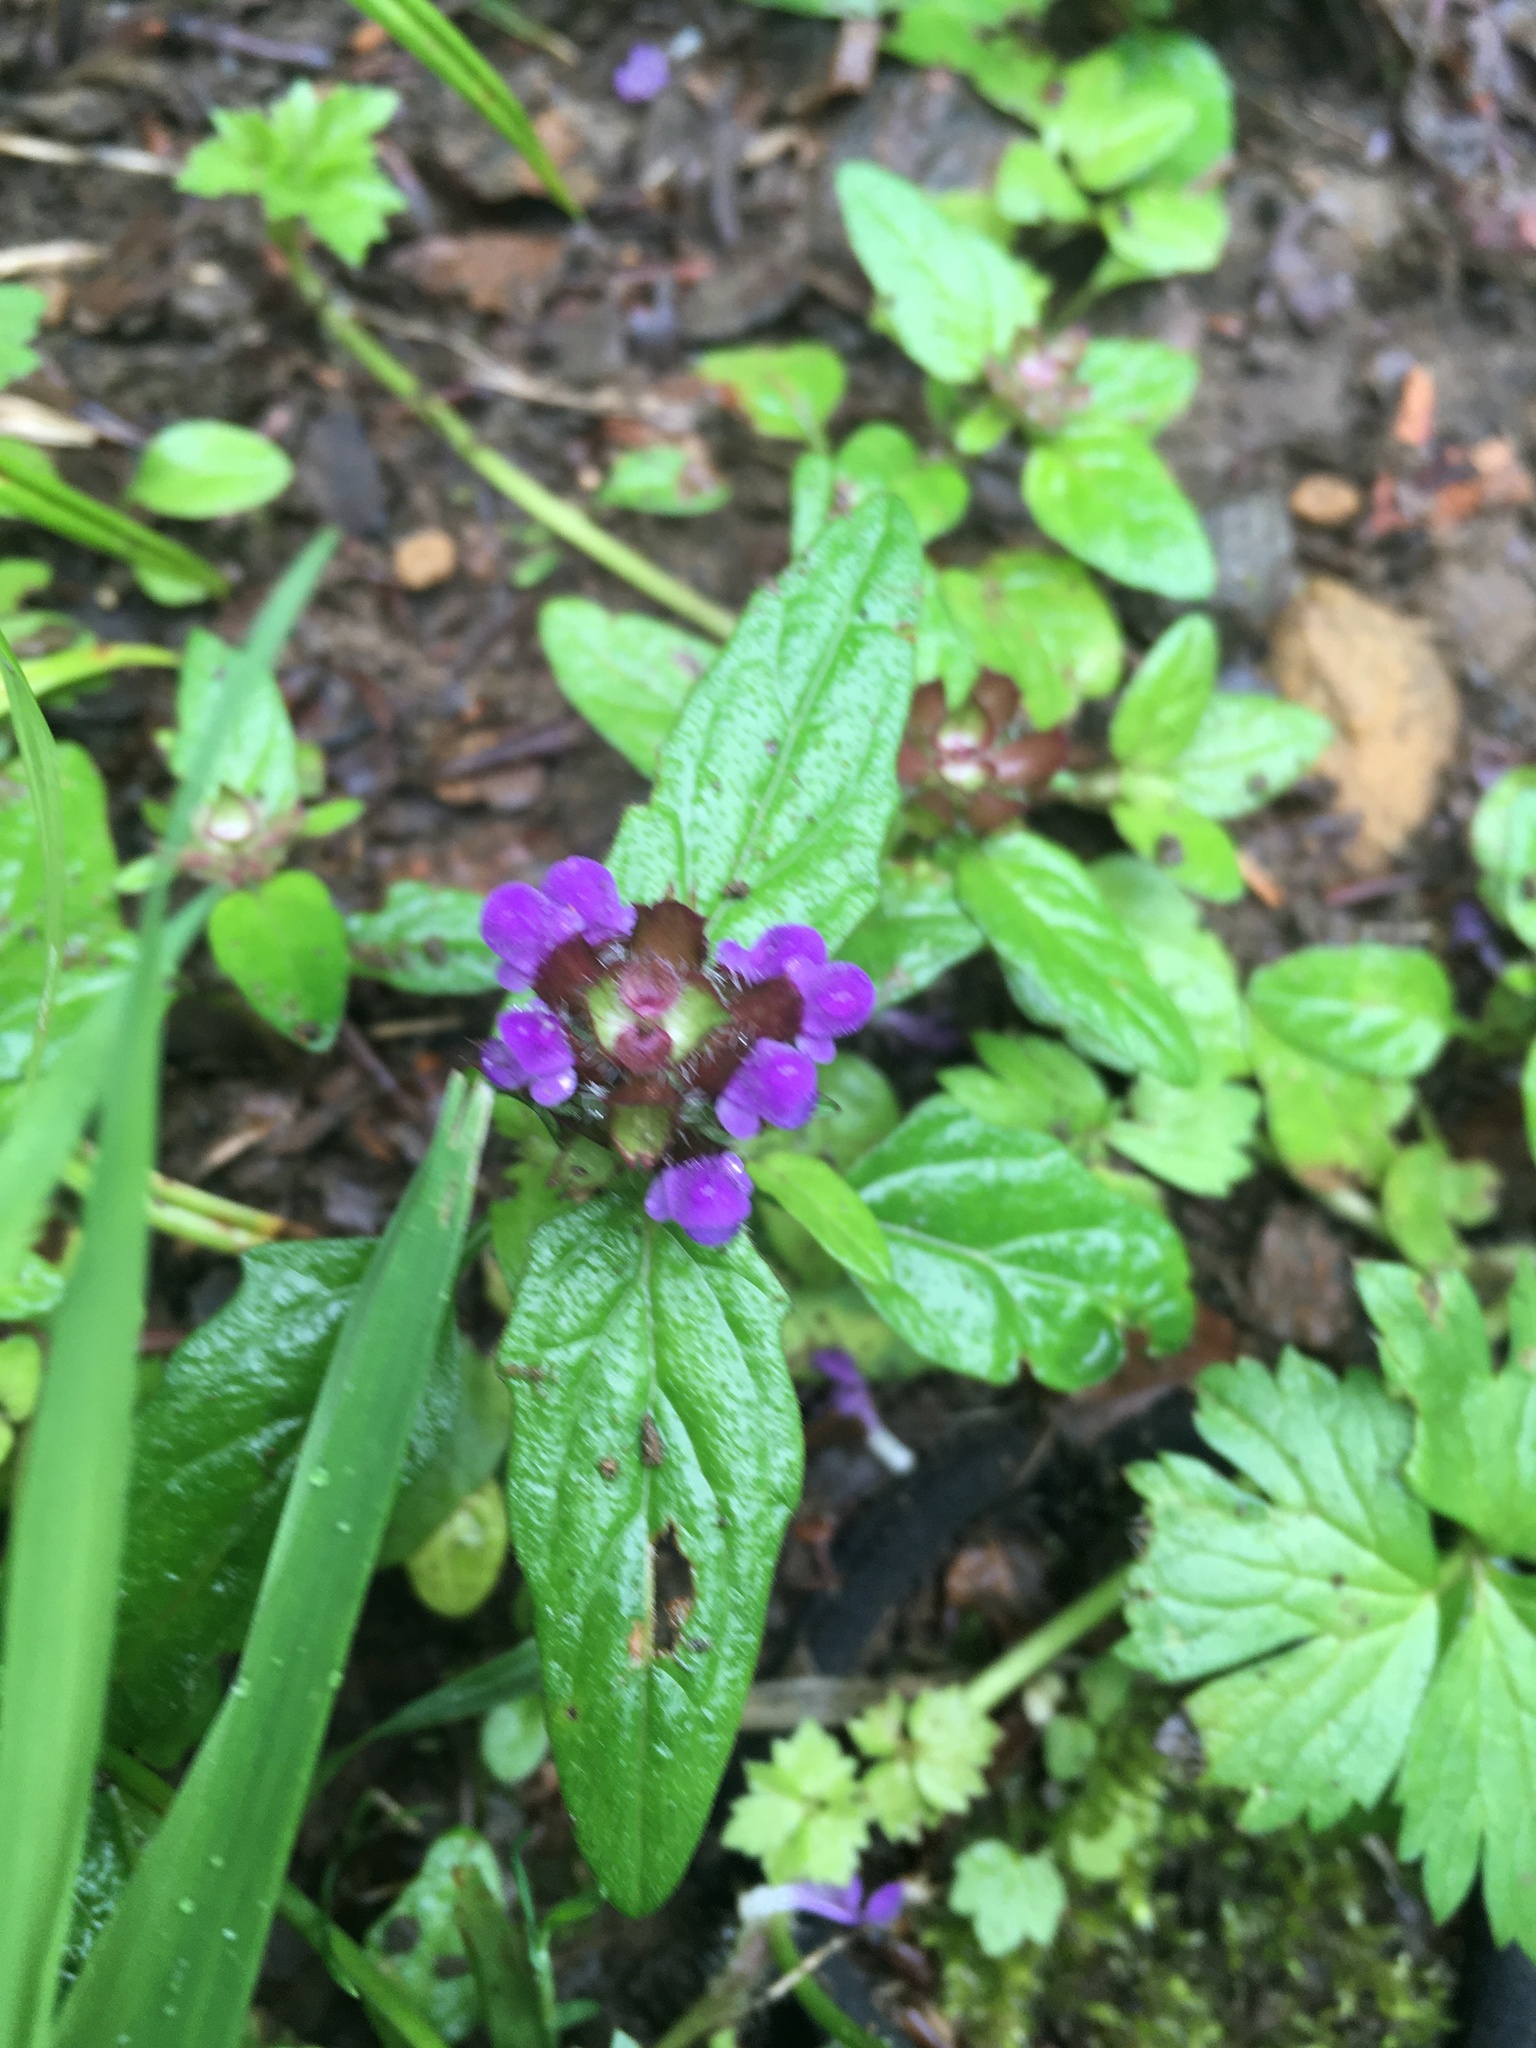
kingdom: Plantae
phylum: Tracheophyta
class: Magnoliopsida
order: Lamiales
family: Lamiaceae
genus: Prunella
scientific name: Prunella vulgaris
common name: Heal-all
